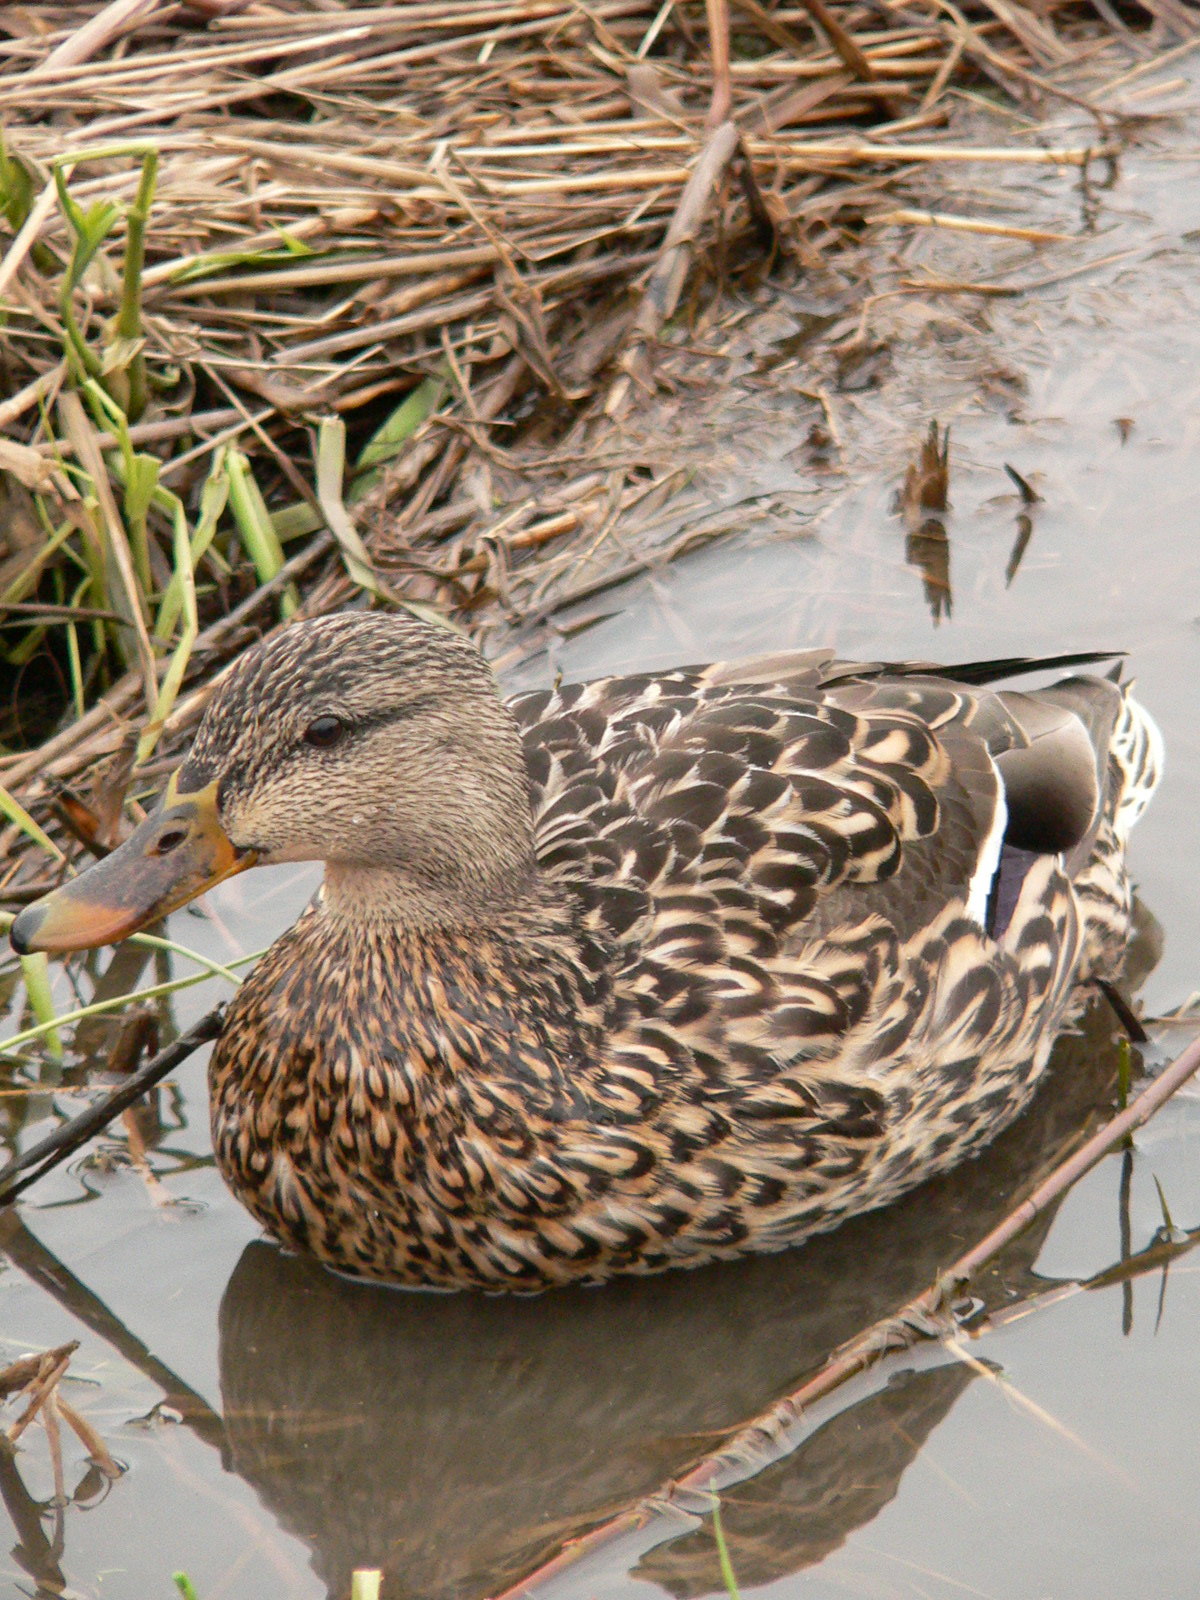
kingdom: Animalia
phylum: Chordata
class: Aves
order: Anseriformes
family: Anatidae
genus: Anas
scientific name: Anas platyrhynchos
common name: Mallard
